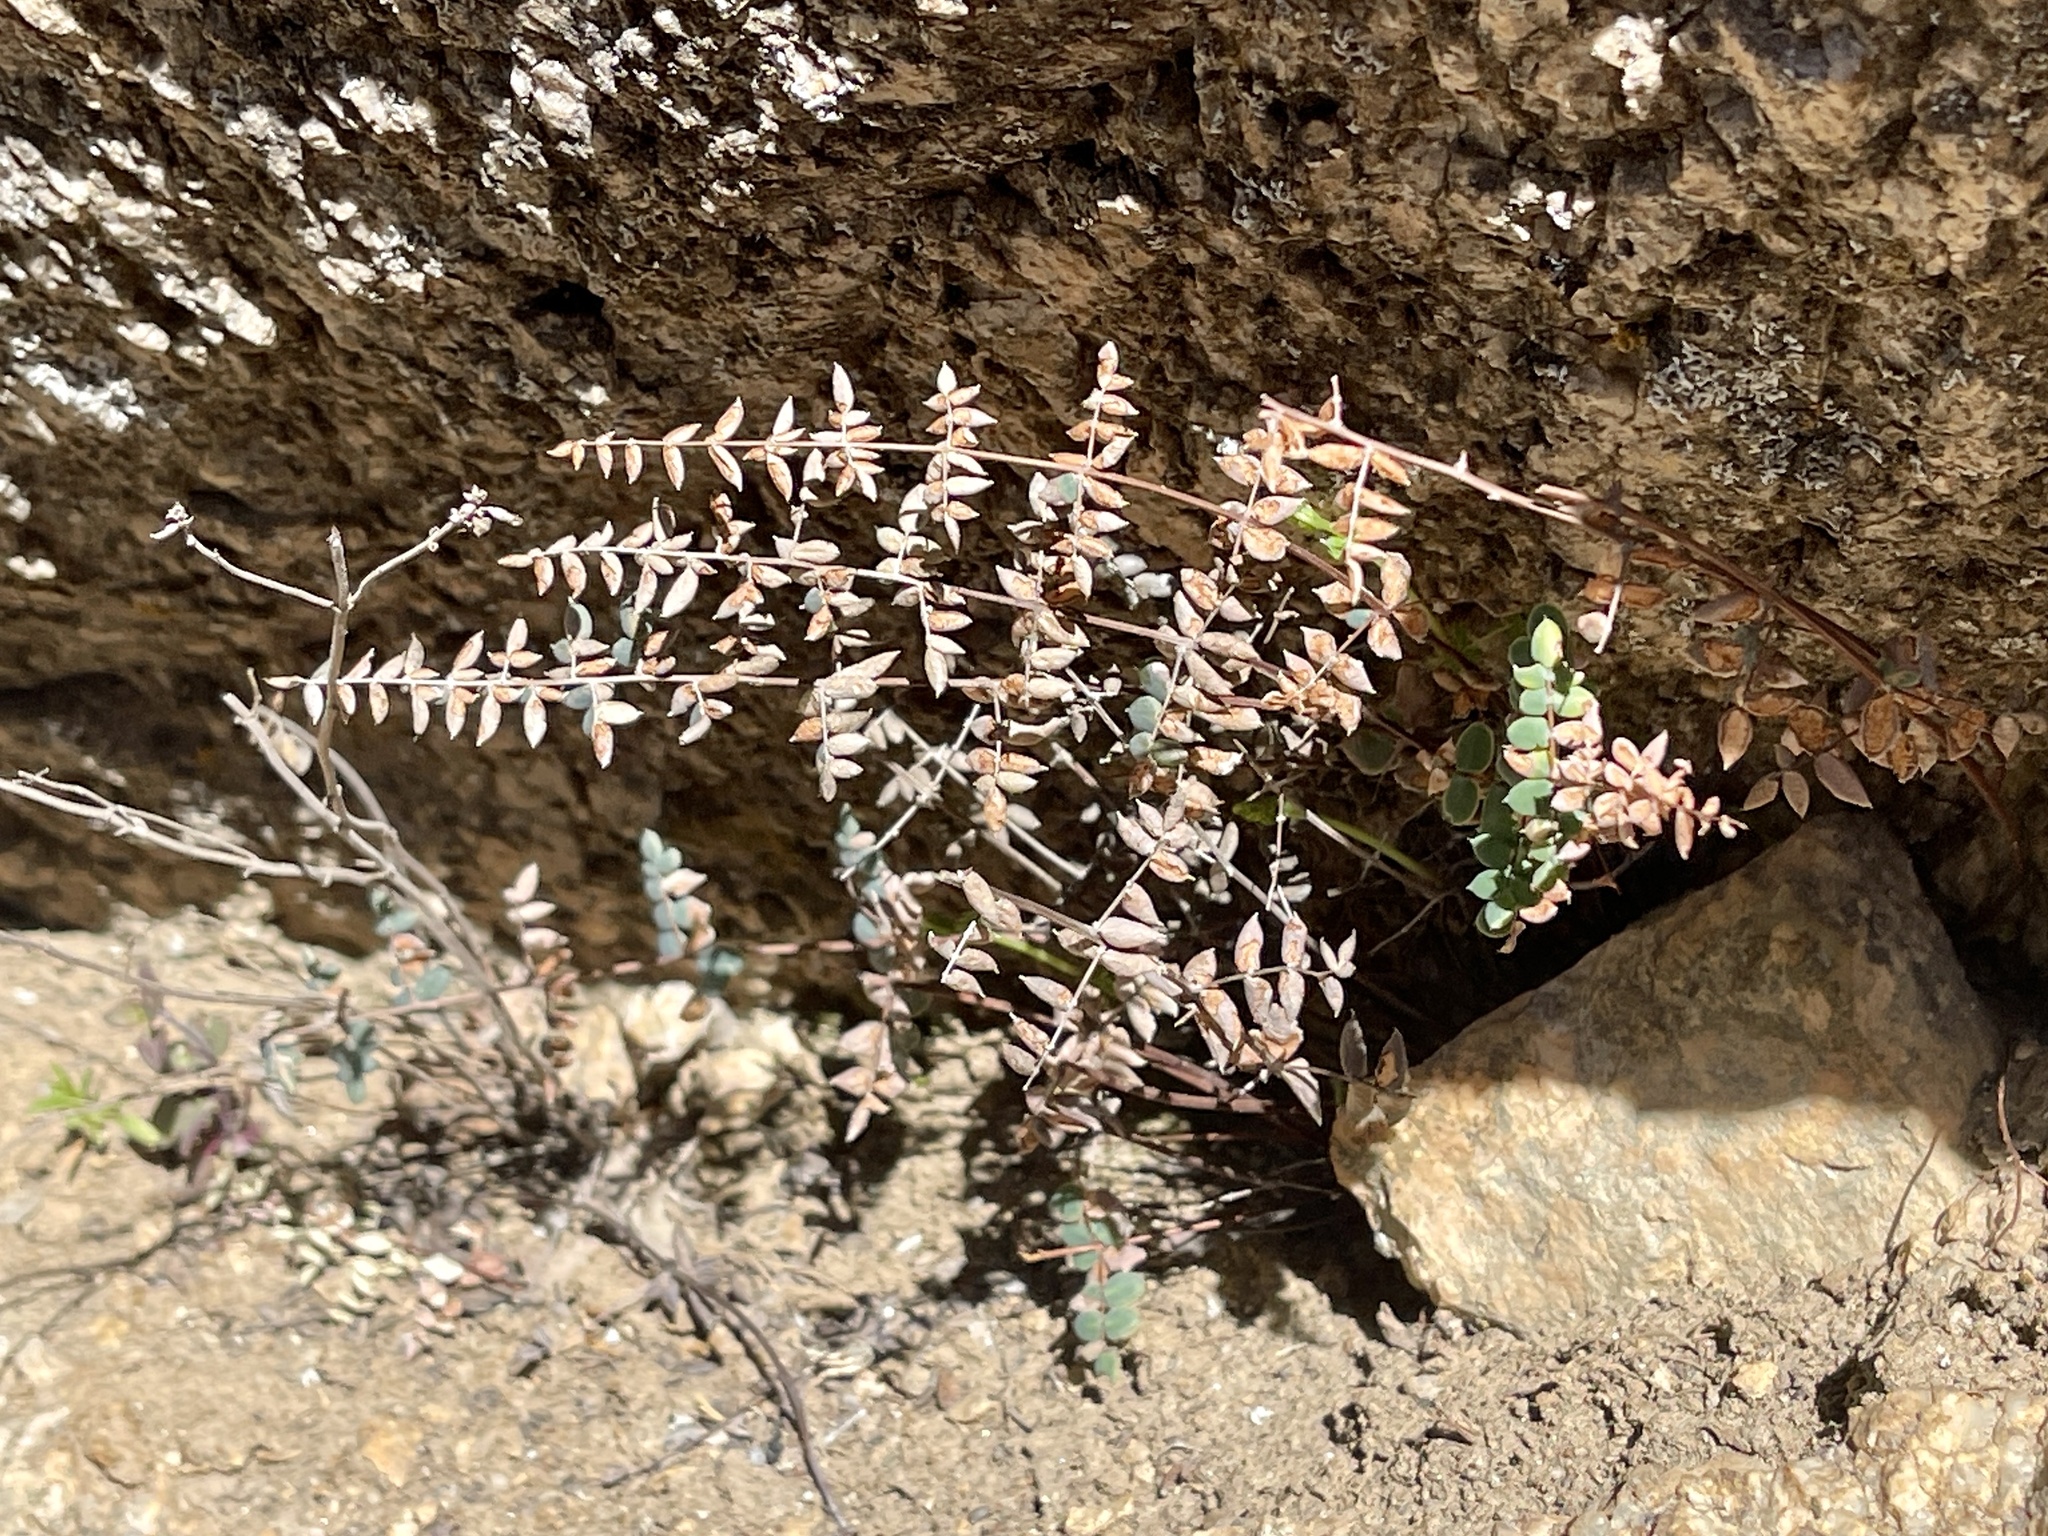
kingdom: Plantae
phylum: Tracheophyta
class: Polypodiopsida
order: Polypodiales
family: Pteridaceae
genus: Pellaea
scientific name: Pellaea truncata
